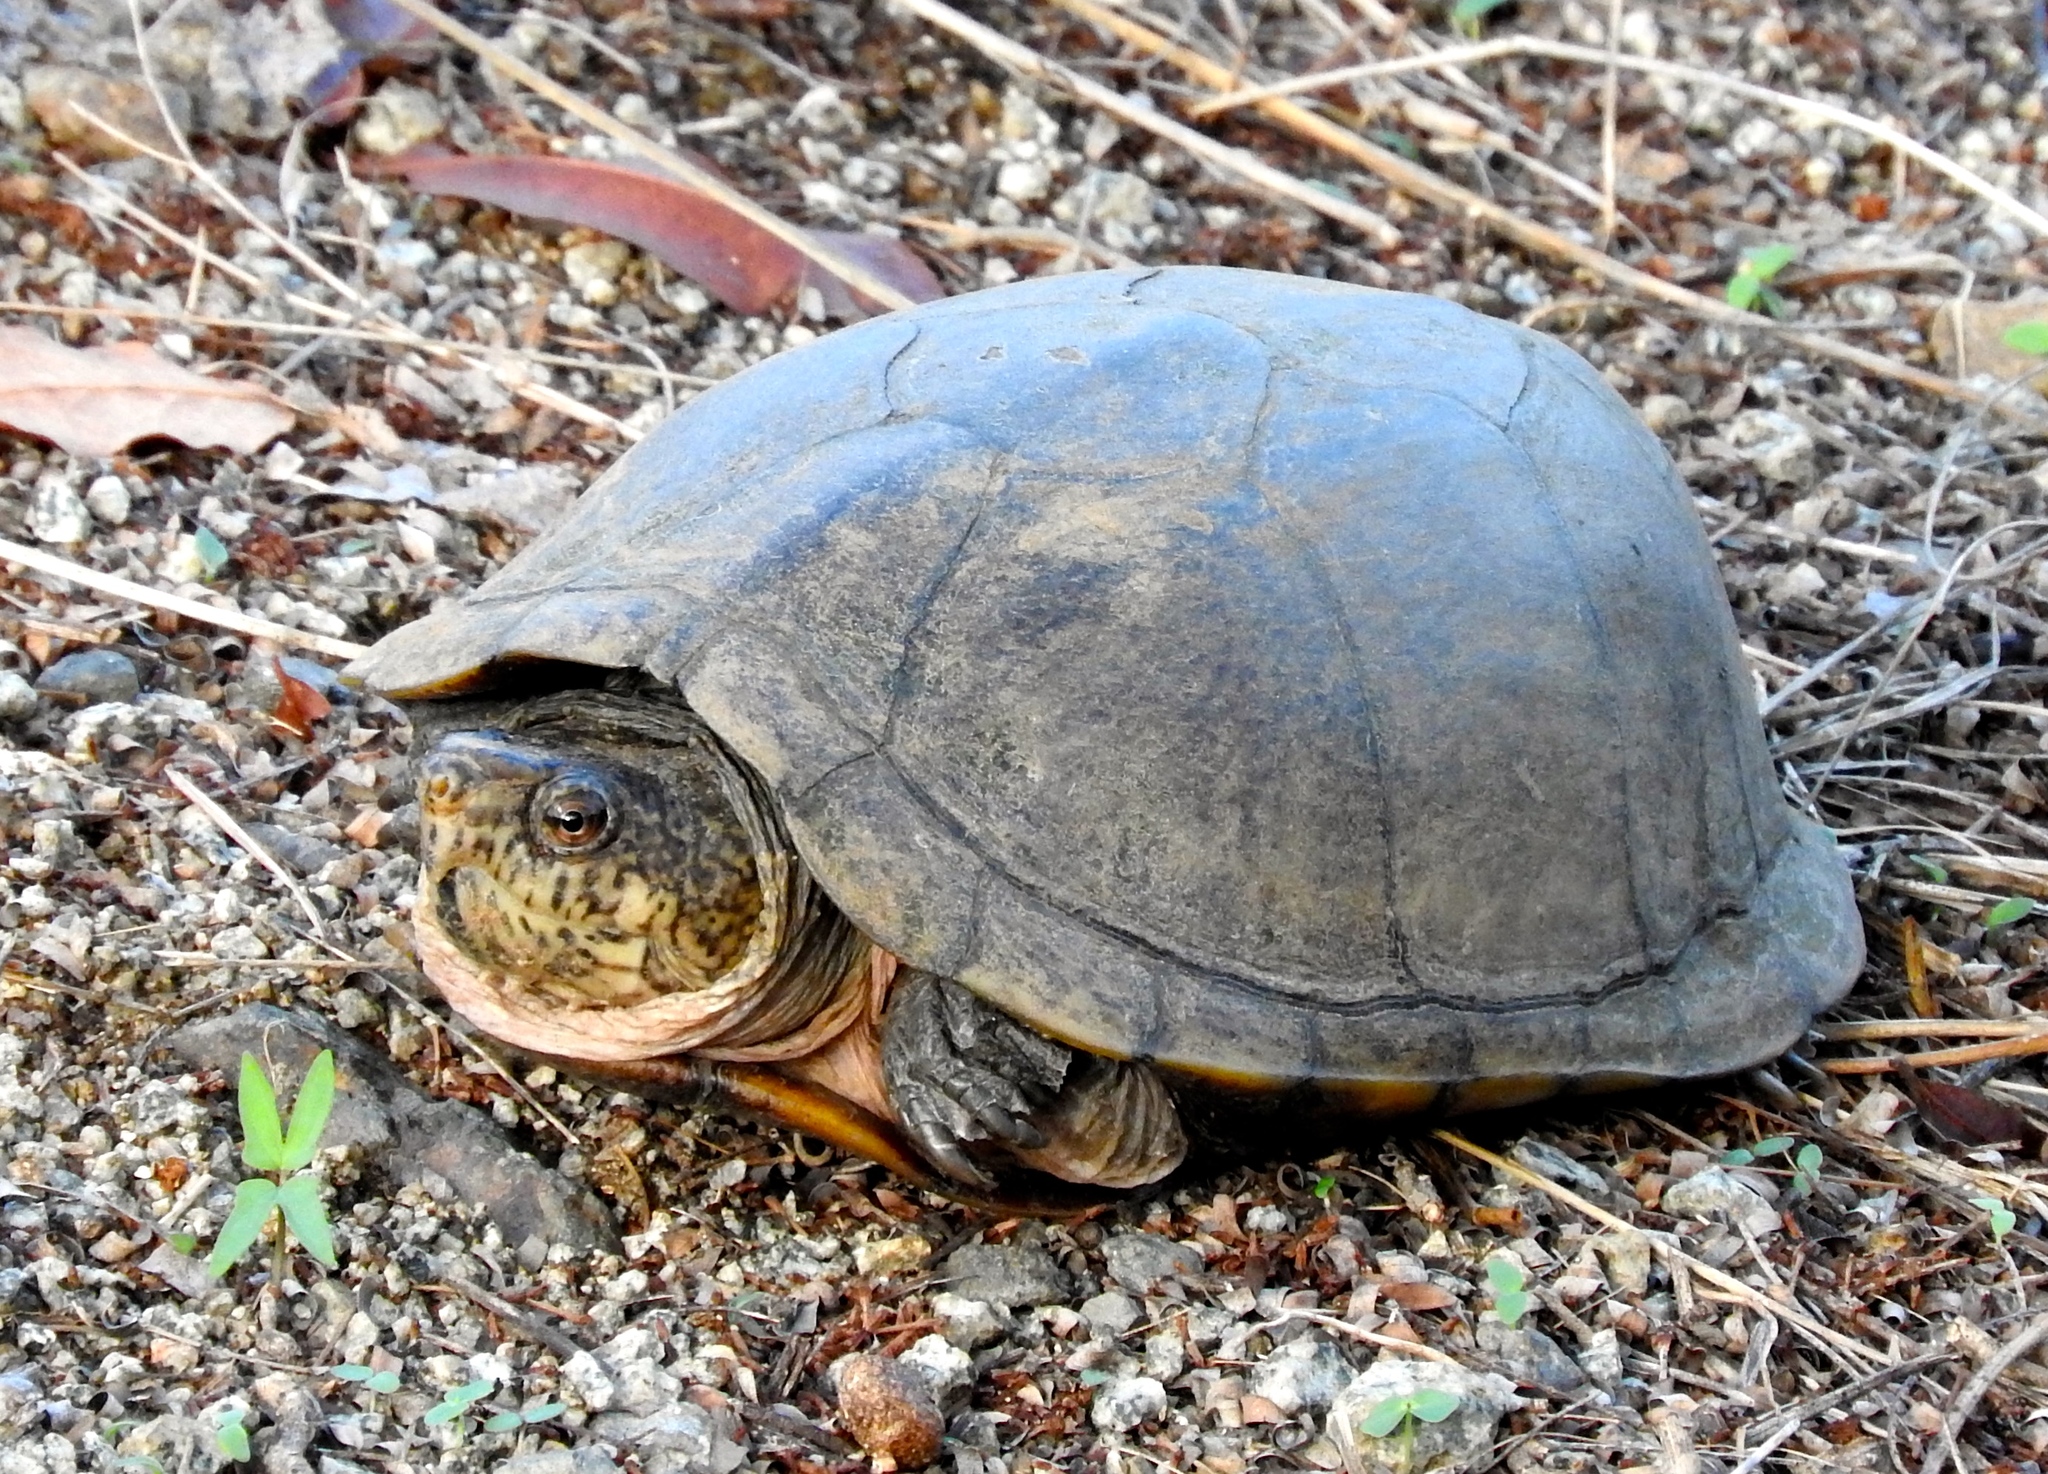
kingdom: Animalia
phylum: Chordata
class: Testudines
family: Kinosternidae
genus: Kinosternon
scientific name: Kinosternon integrum
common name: Mexican mud turtle
